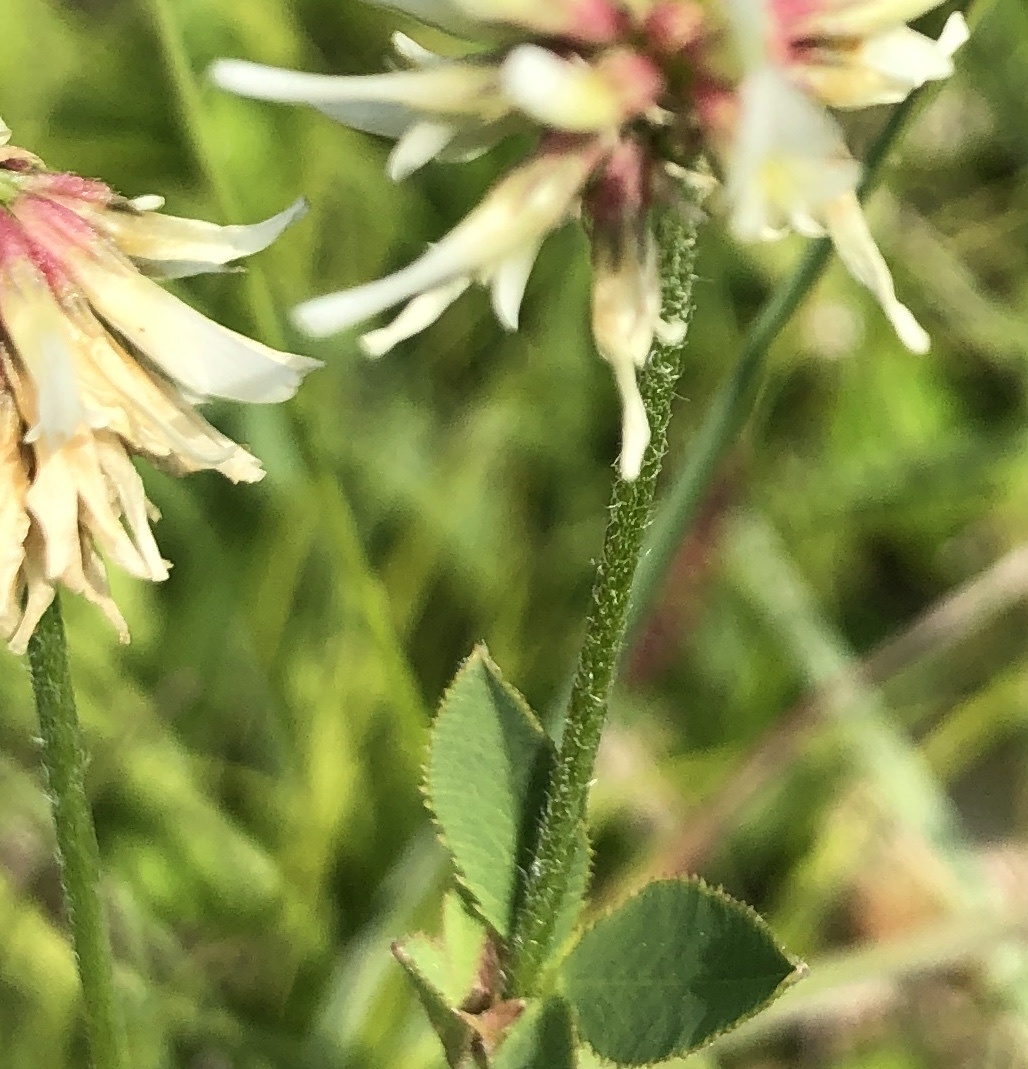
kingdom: Plantae
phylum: Tracheophyta
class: Magnoliopsida
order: Fabales
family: Fabaceae
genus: Trifolium
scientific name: Trifolium montanum
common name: Mountain clover
